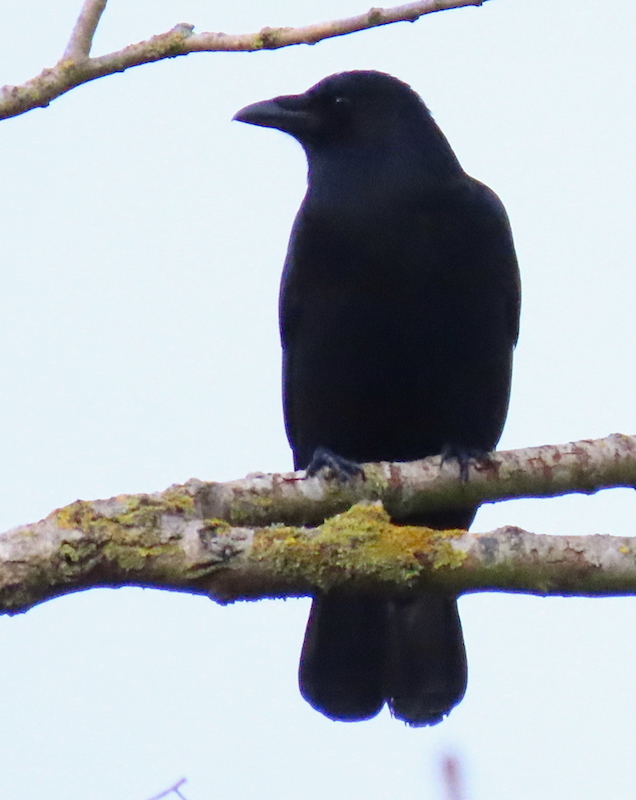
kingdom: Animalia
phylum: Chordata
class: Aves
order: Passeriformes
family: Corvidae
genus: Corvus
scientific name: Corvus corone
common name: Carrion crow
